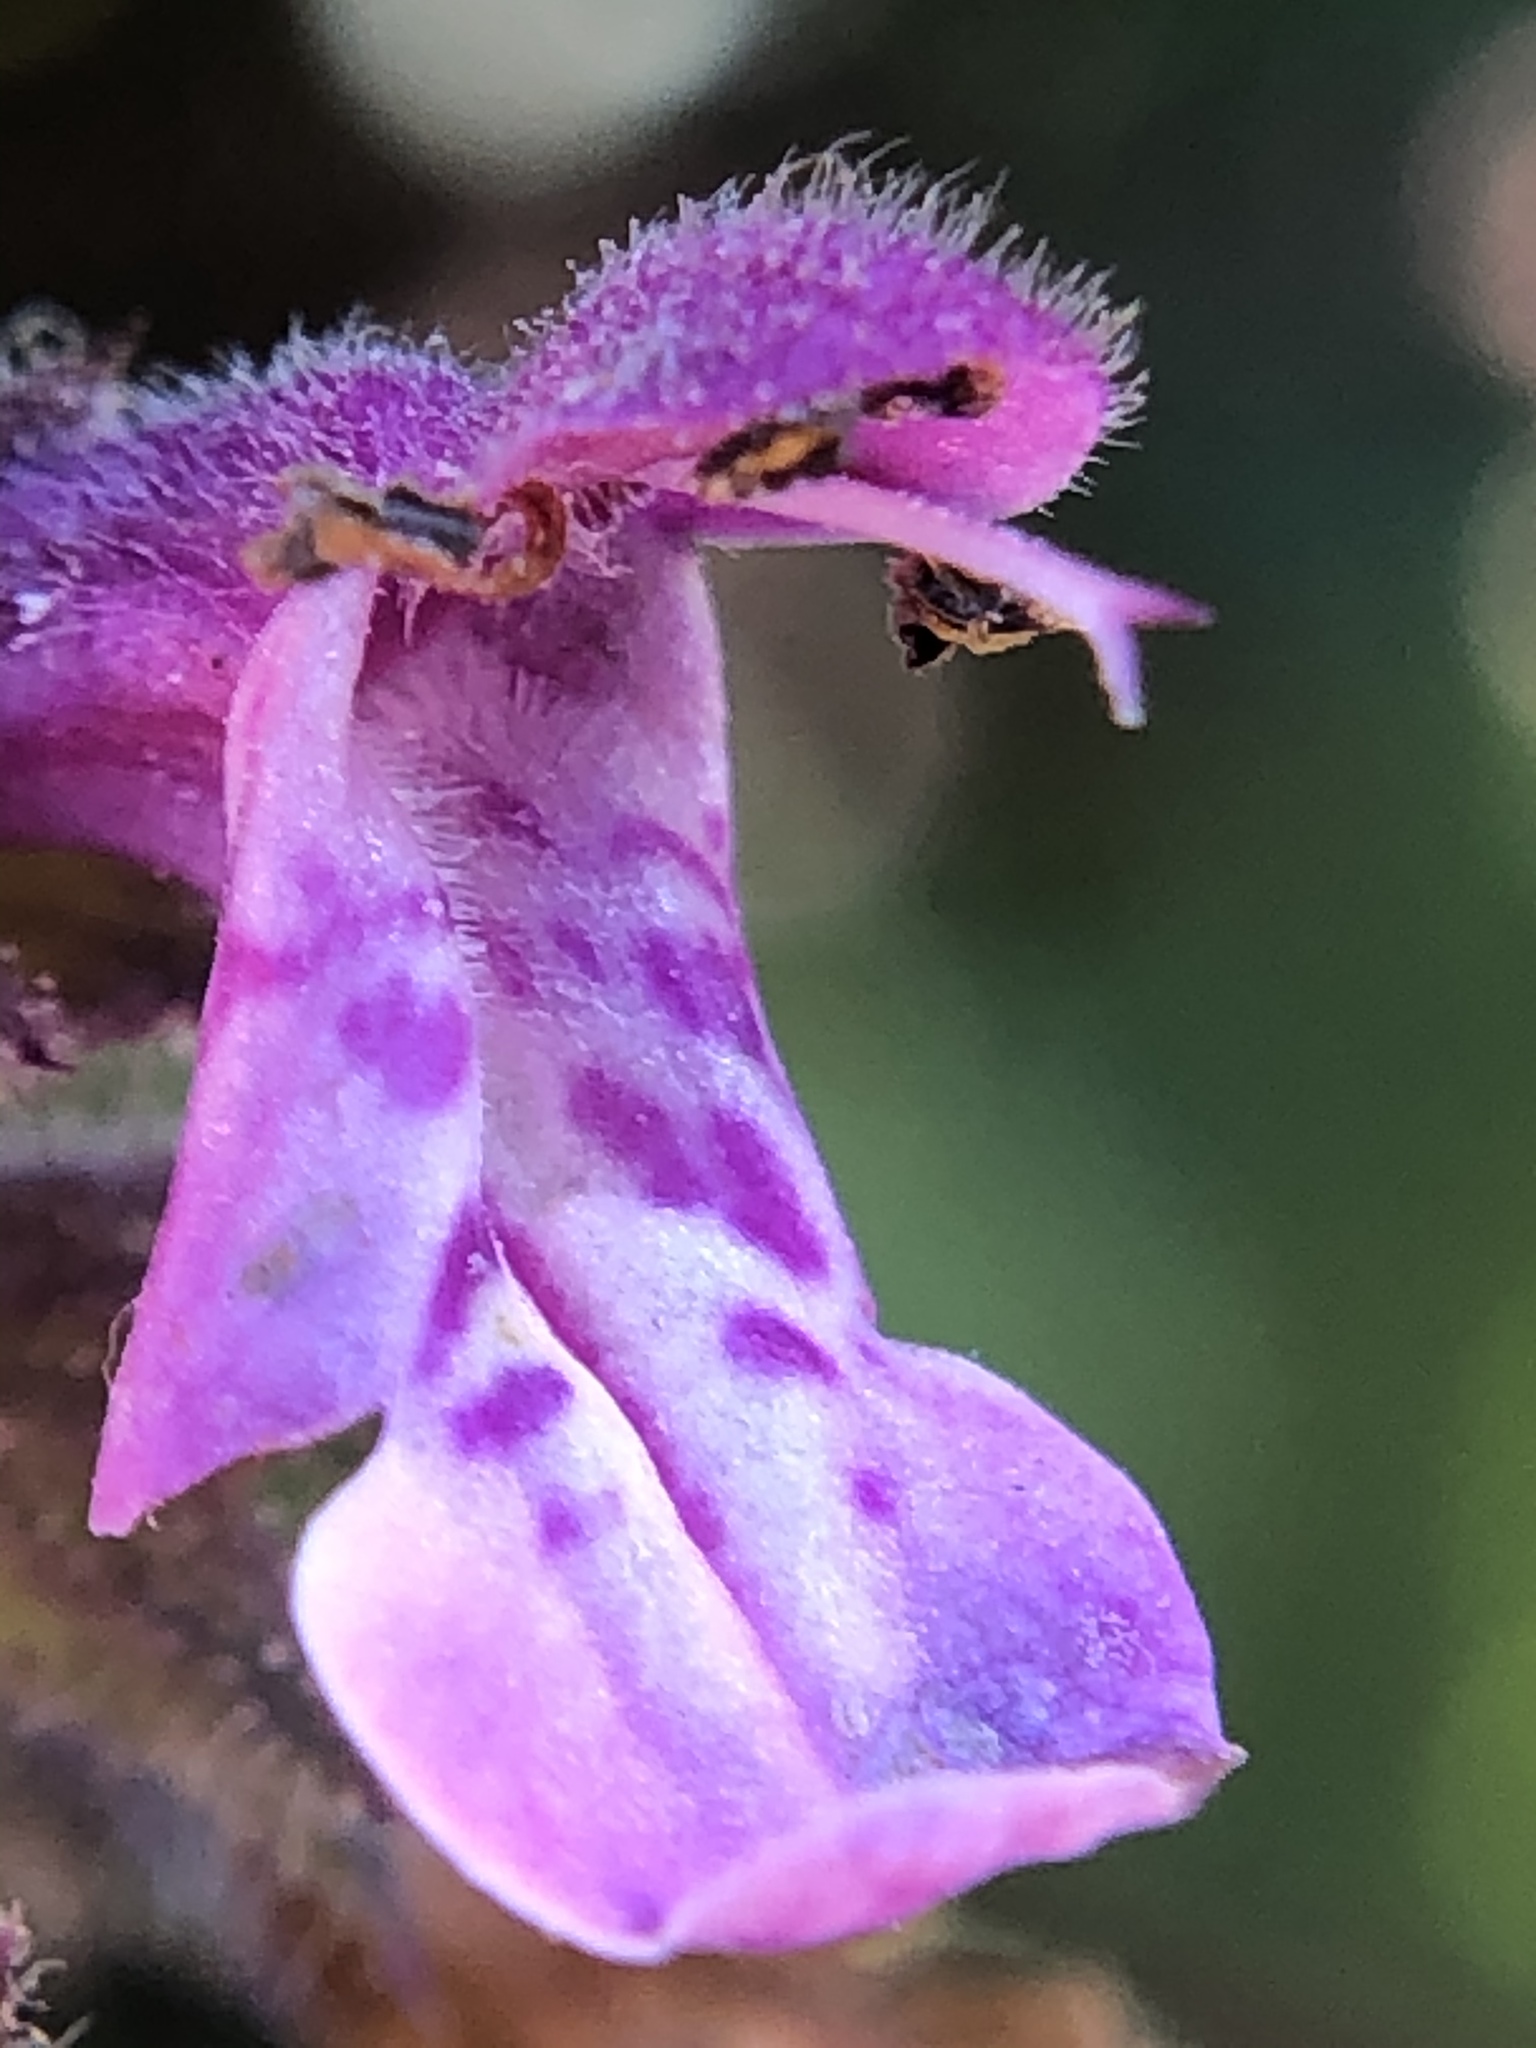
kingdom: Plantae
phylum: Tracheophyta
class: Magnoliopsida
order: Lamiales
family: Lamiaceae
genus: Stachys
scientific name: Stachys chamissonis
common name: Coastal hedge-nettle
